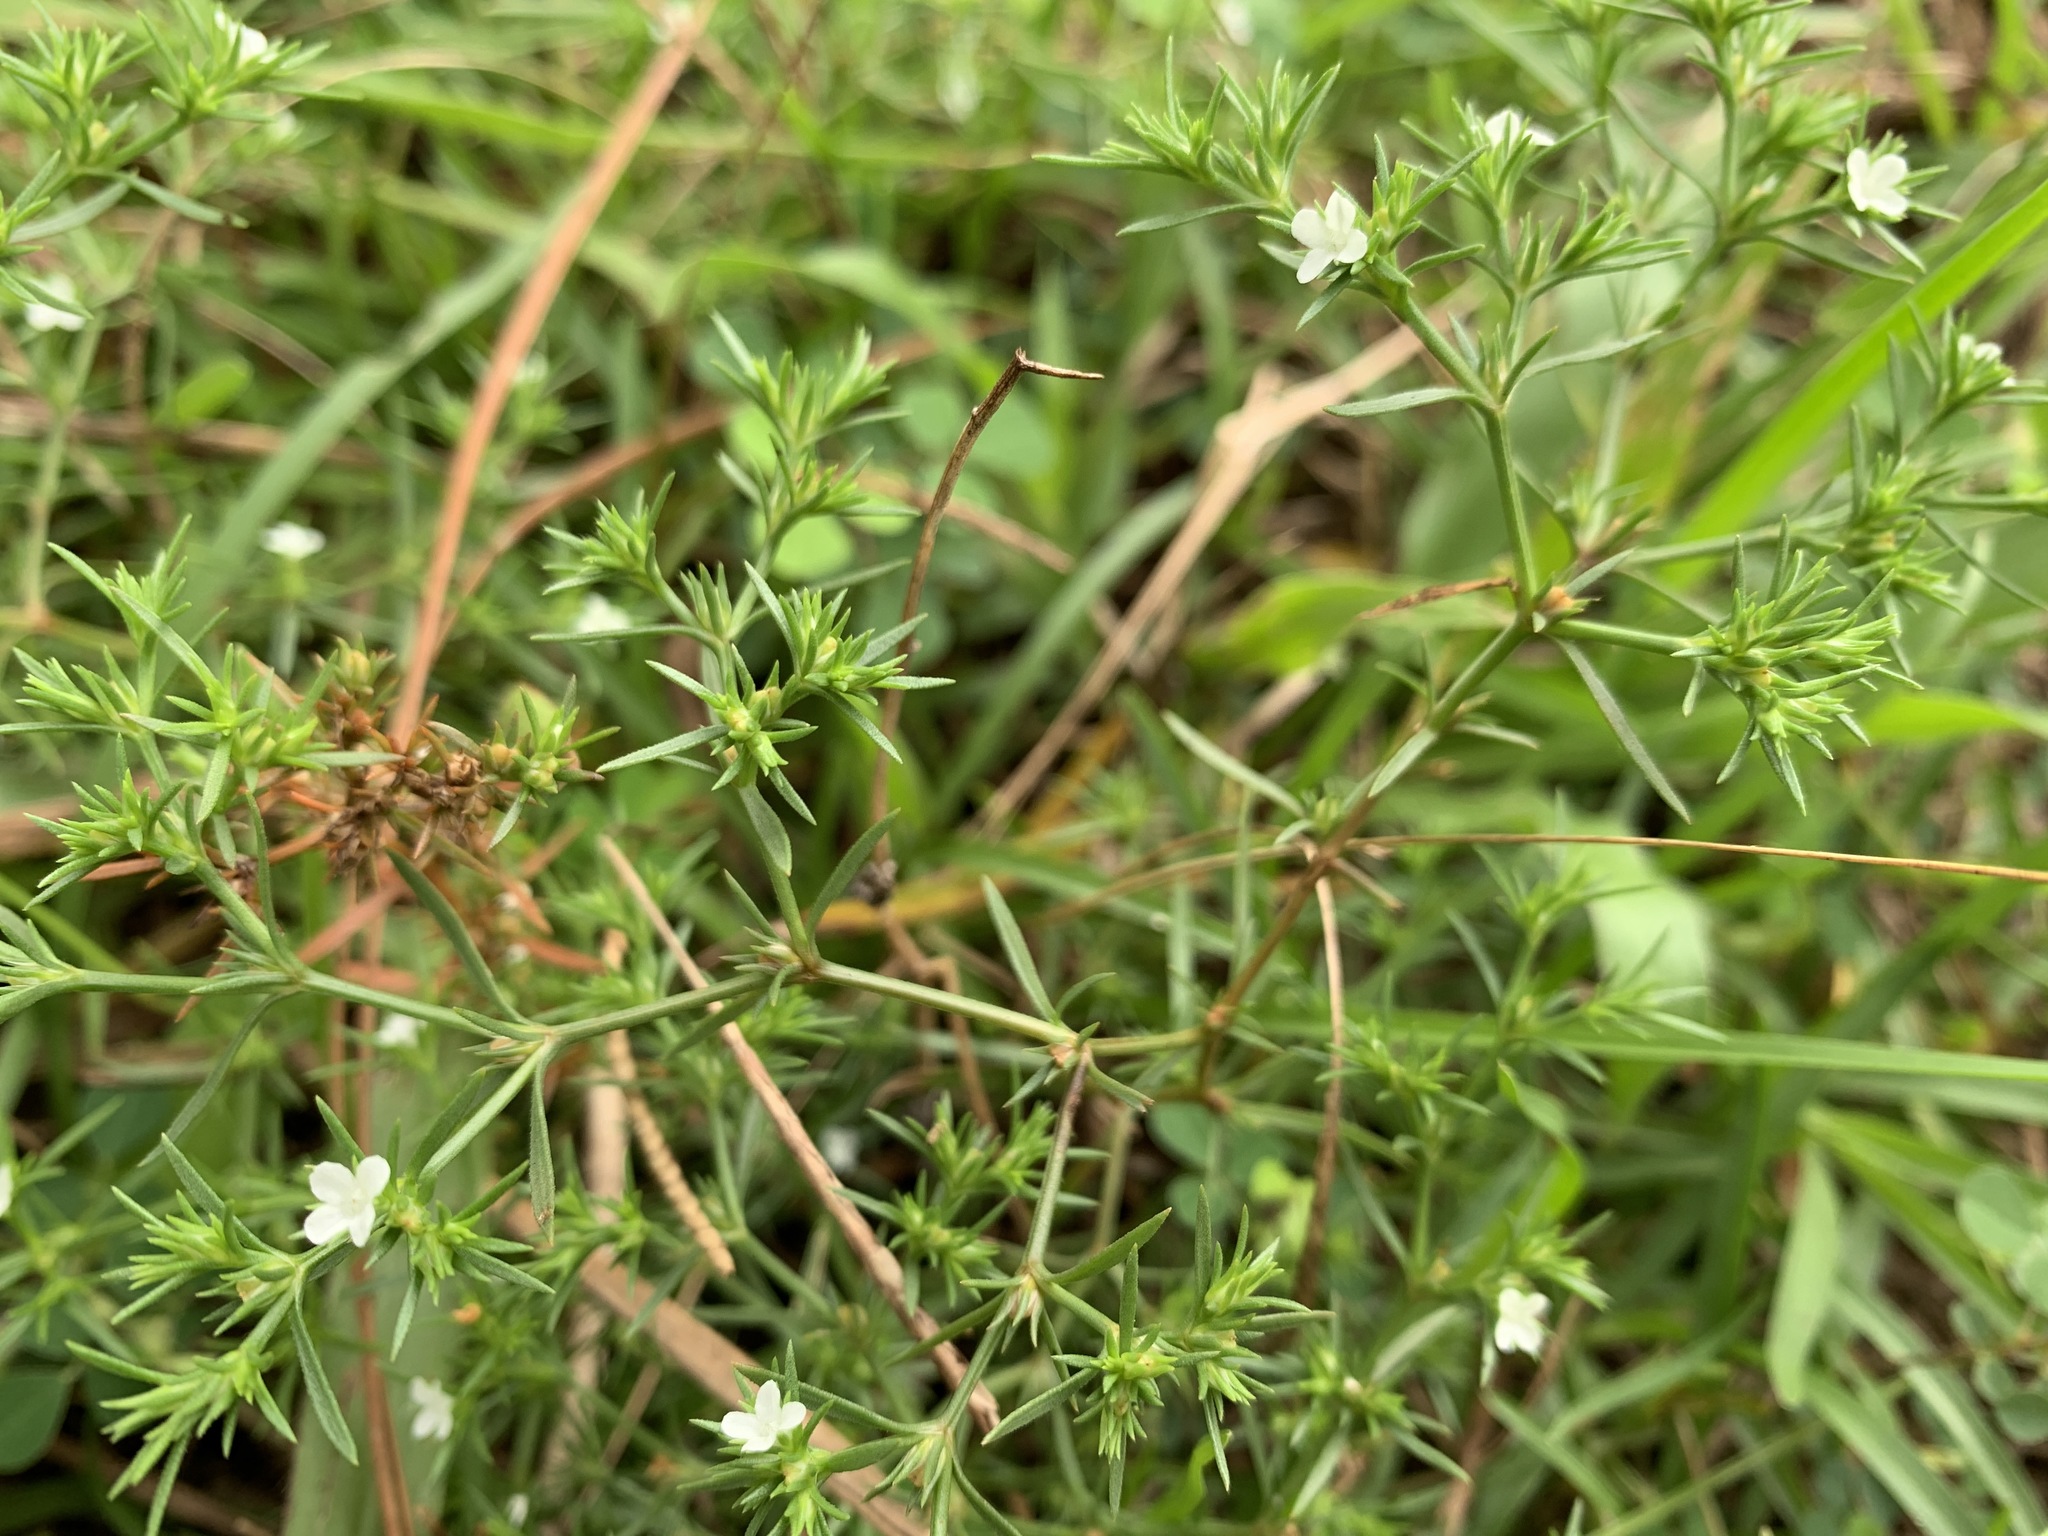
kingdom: Plantae
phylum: Tracheophyta
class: Magnoliopsida
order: Lamiales
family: Tetrachondraceae
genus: Polypremum
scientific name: Polypremum procumbens
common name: Juniper-leaf
